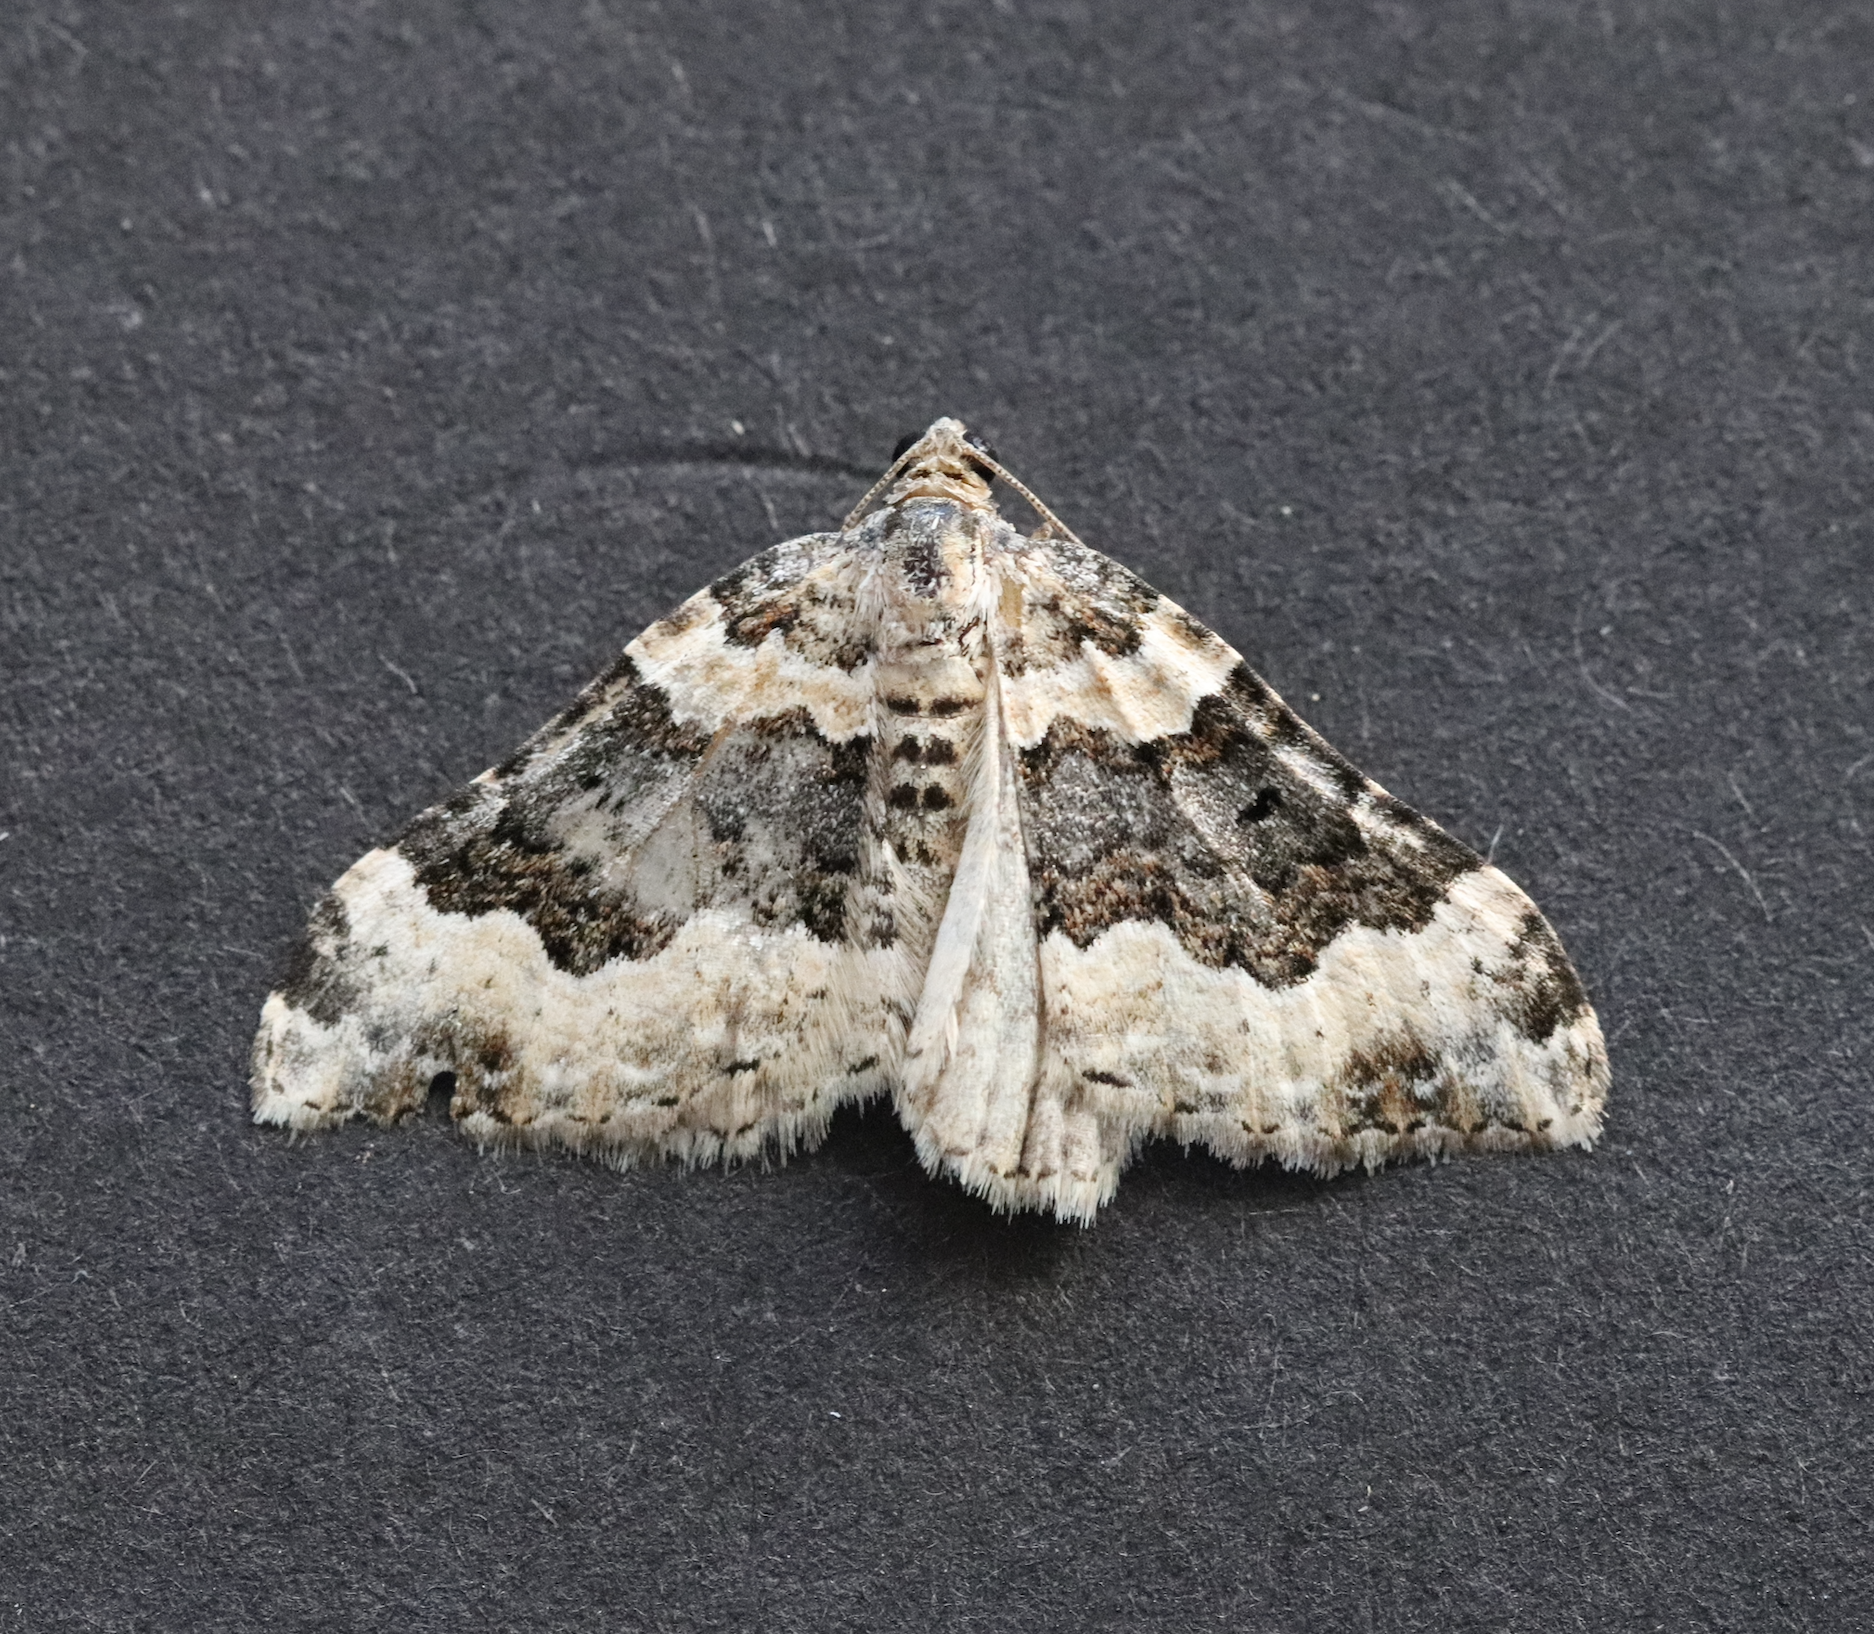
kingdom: Animalia
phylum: Arthropoda
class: Insecta
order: Lepidoptera
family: Geometridae
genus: Epirrhoe
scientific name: Epirrhoe galiata
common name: Galium carpet
